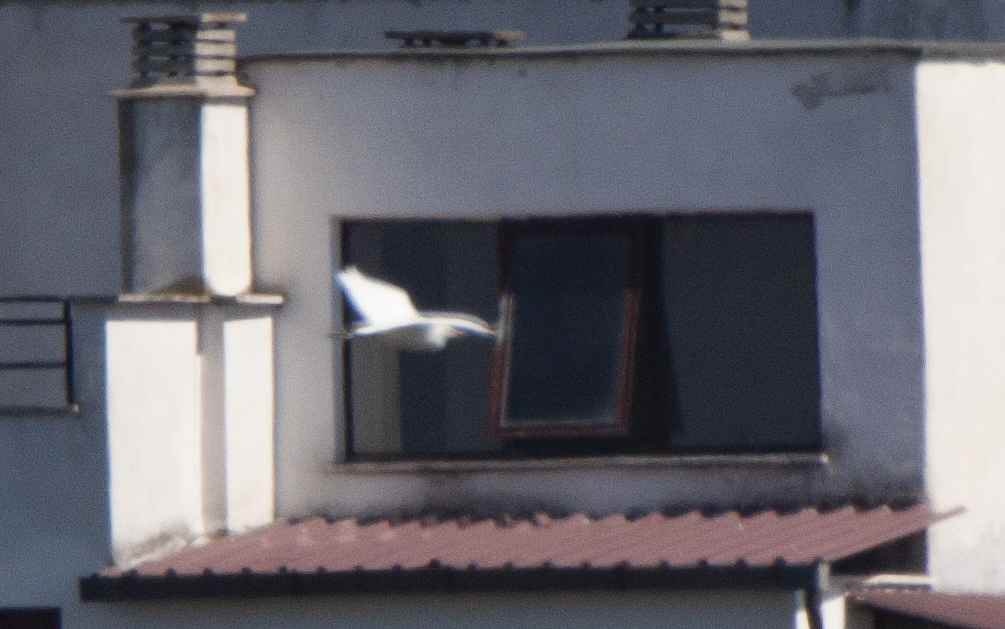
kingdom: Animalia
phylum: Chordata
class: Aves
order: Pelecaniformes
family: Ardeidae
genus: Bubulcus
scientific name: Bubulcus ibis
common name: Cattle egret
